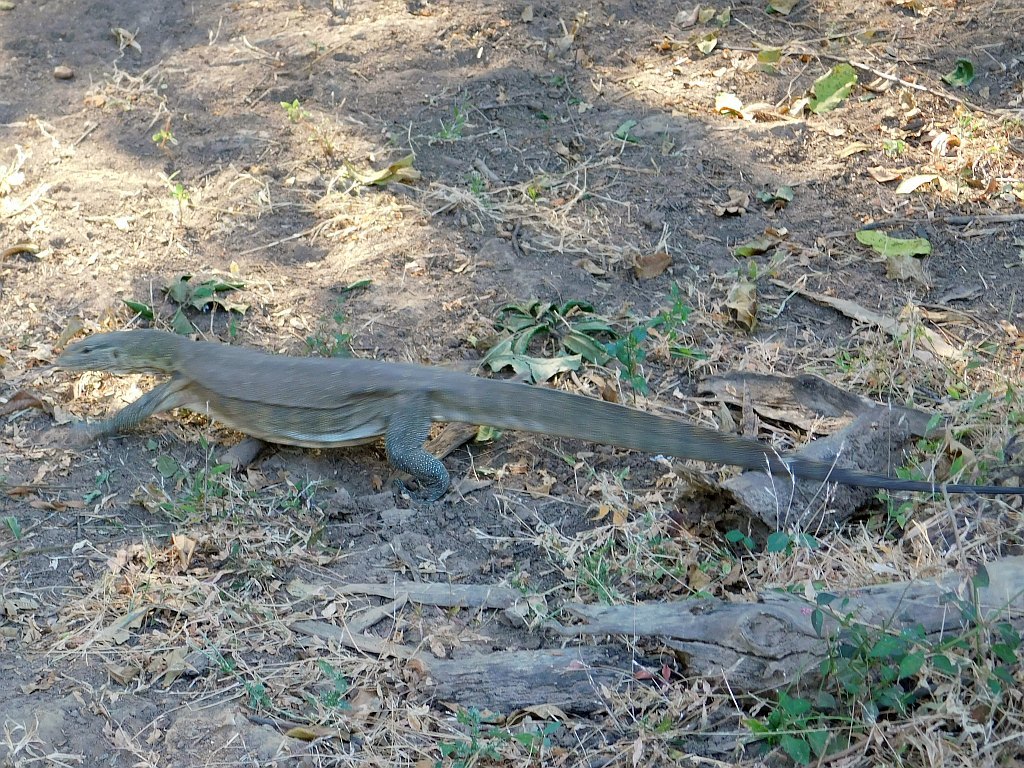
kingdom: Animalia
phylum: Chordata
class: Squamata
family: Varanidae
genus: Varanus
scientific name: Varanus niloticus
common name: Nile monitor
